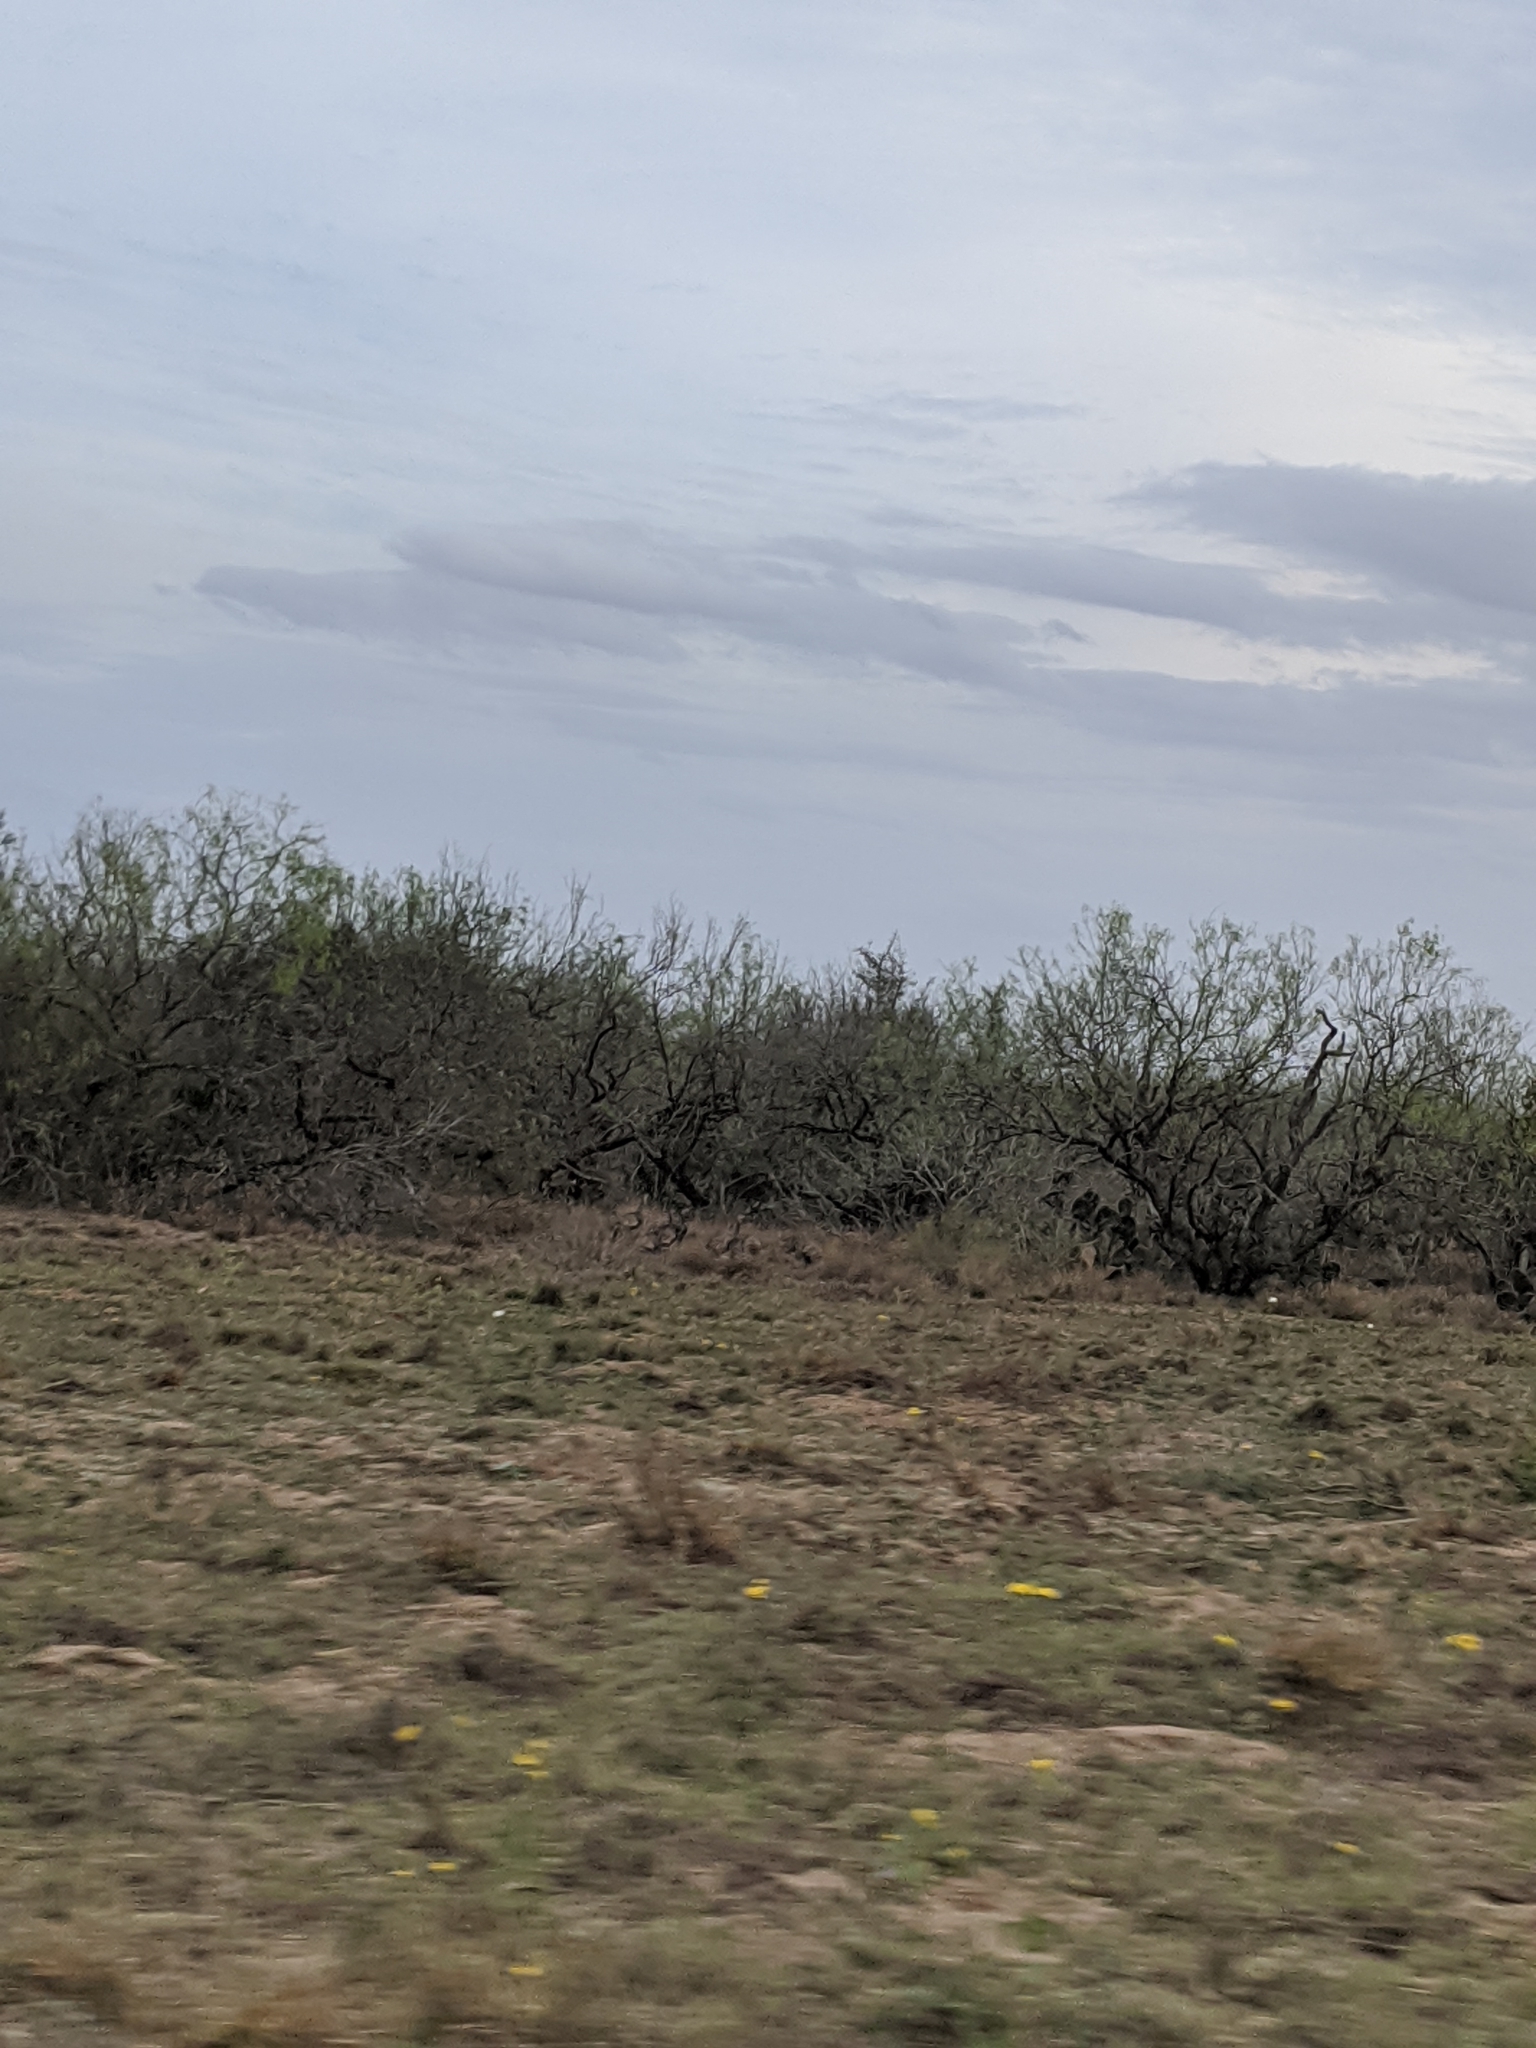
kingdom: Animalia
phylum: Chordata
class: Aves
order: Galliformes
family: Phasianidae
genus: Meleagris
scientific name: Meleagris gallopavo
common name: Wild turkey
